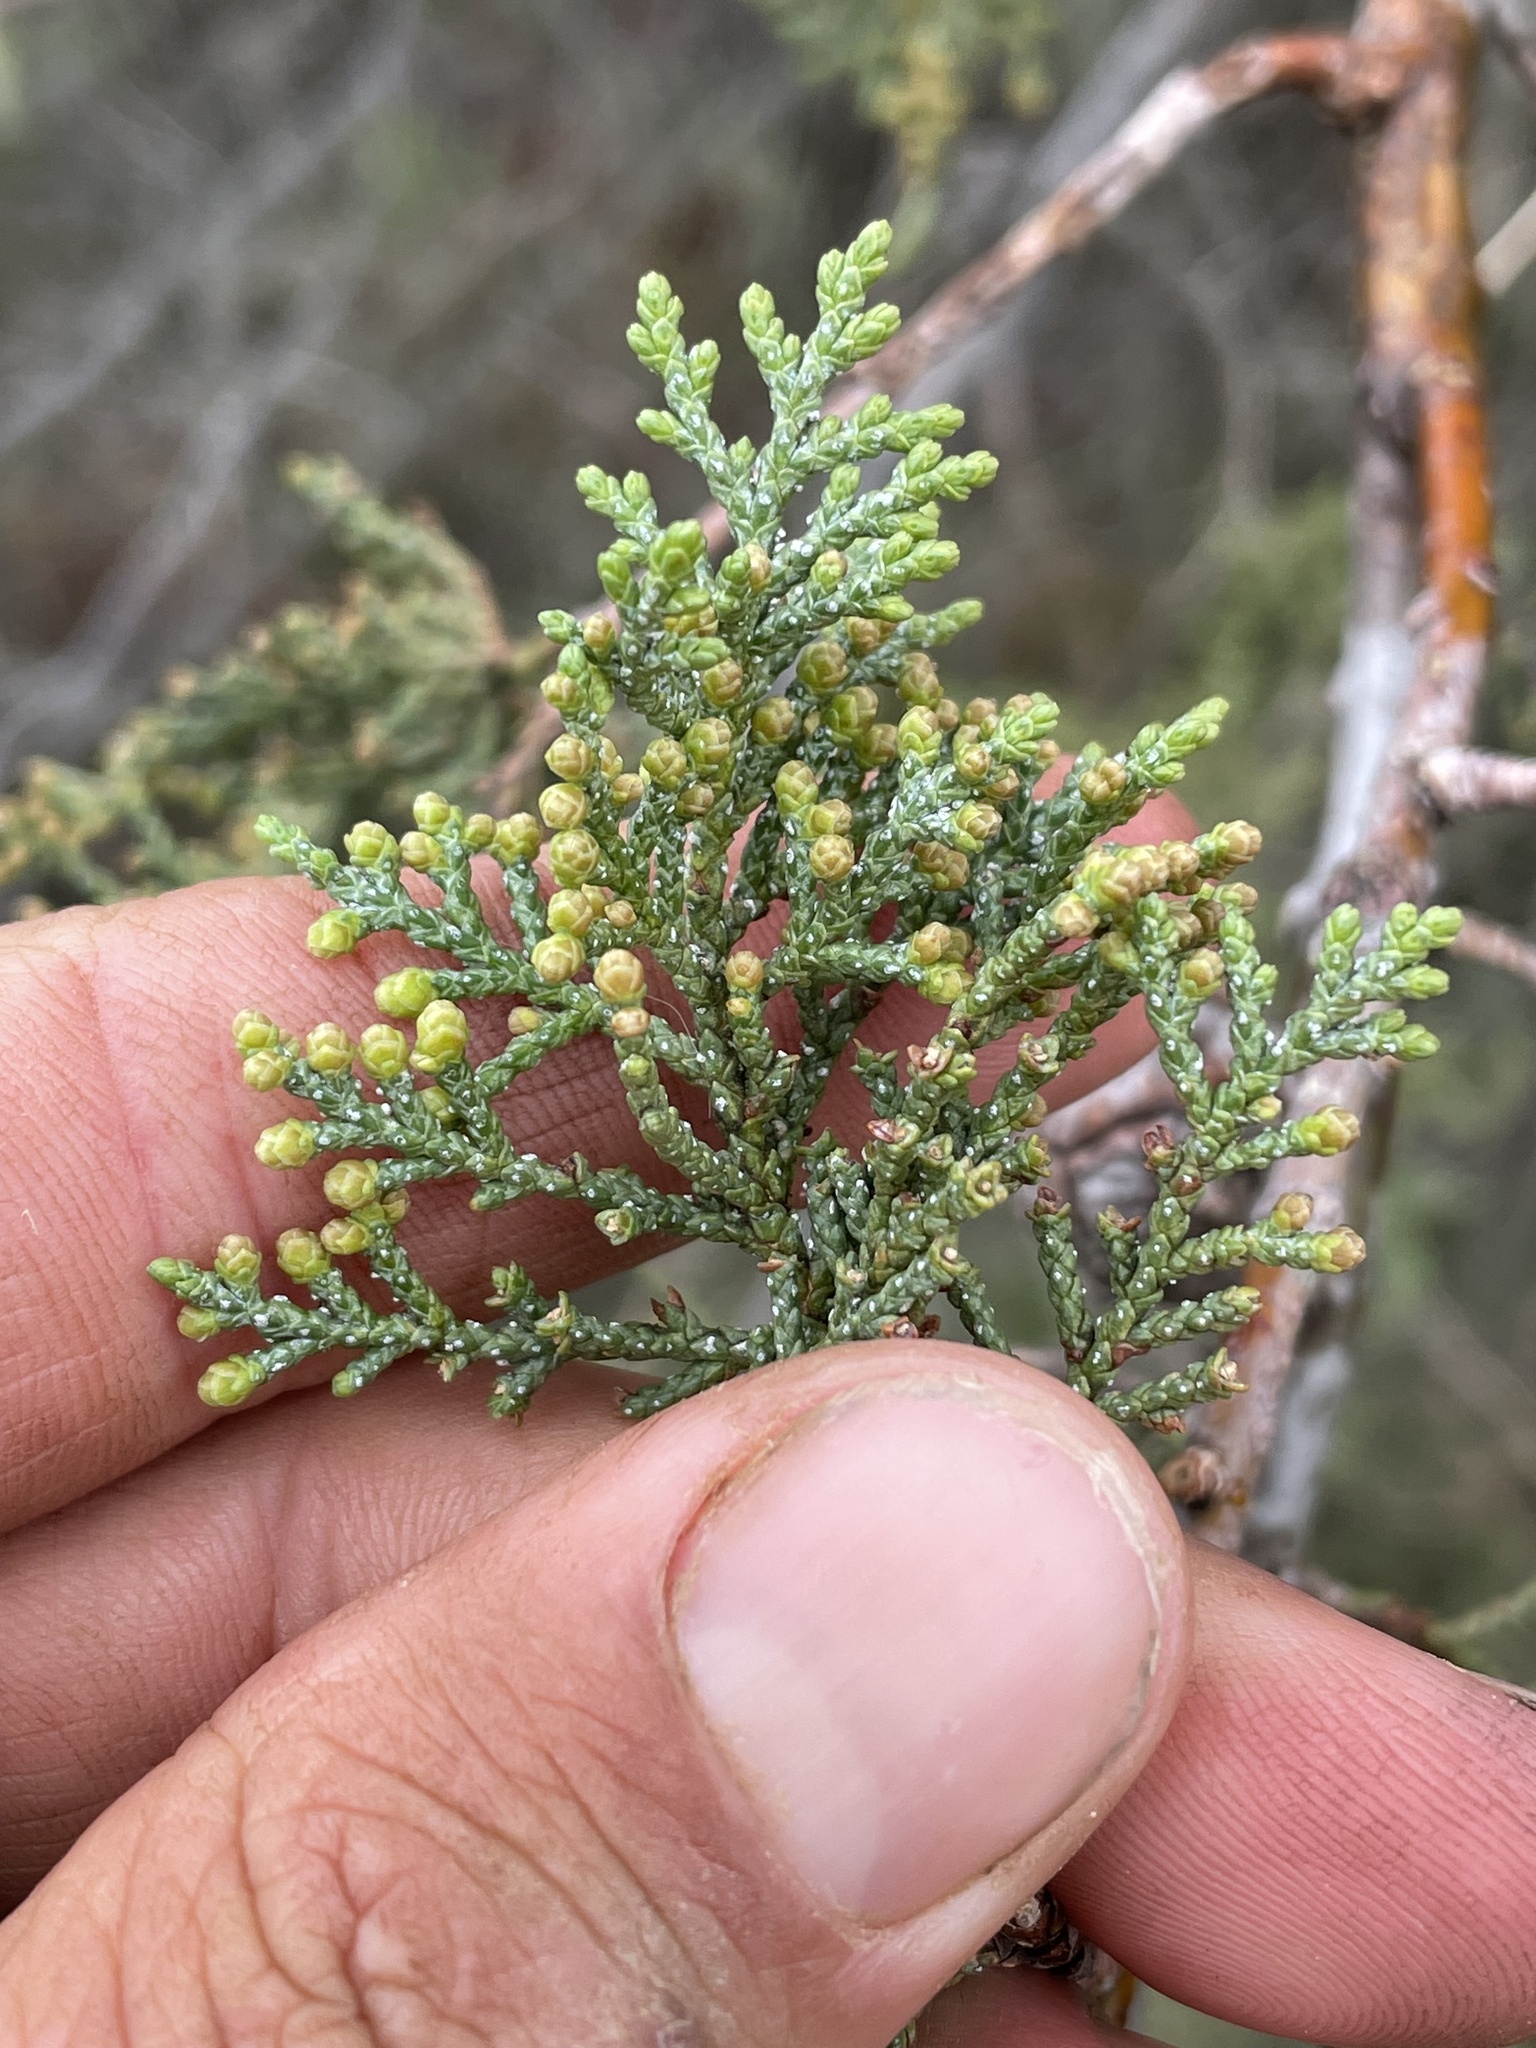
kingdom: Plantae
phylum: Tracheophyta
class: Pinopsida
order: Pinales
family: Cupressaceae
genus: Cupressus
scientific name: Cupressus macnabiana bis
